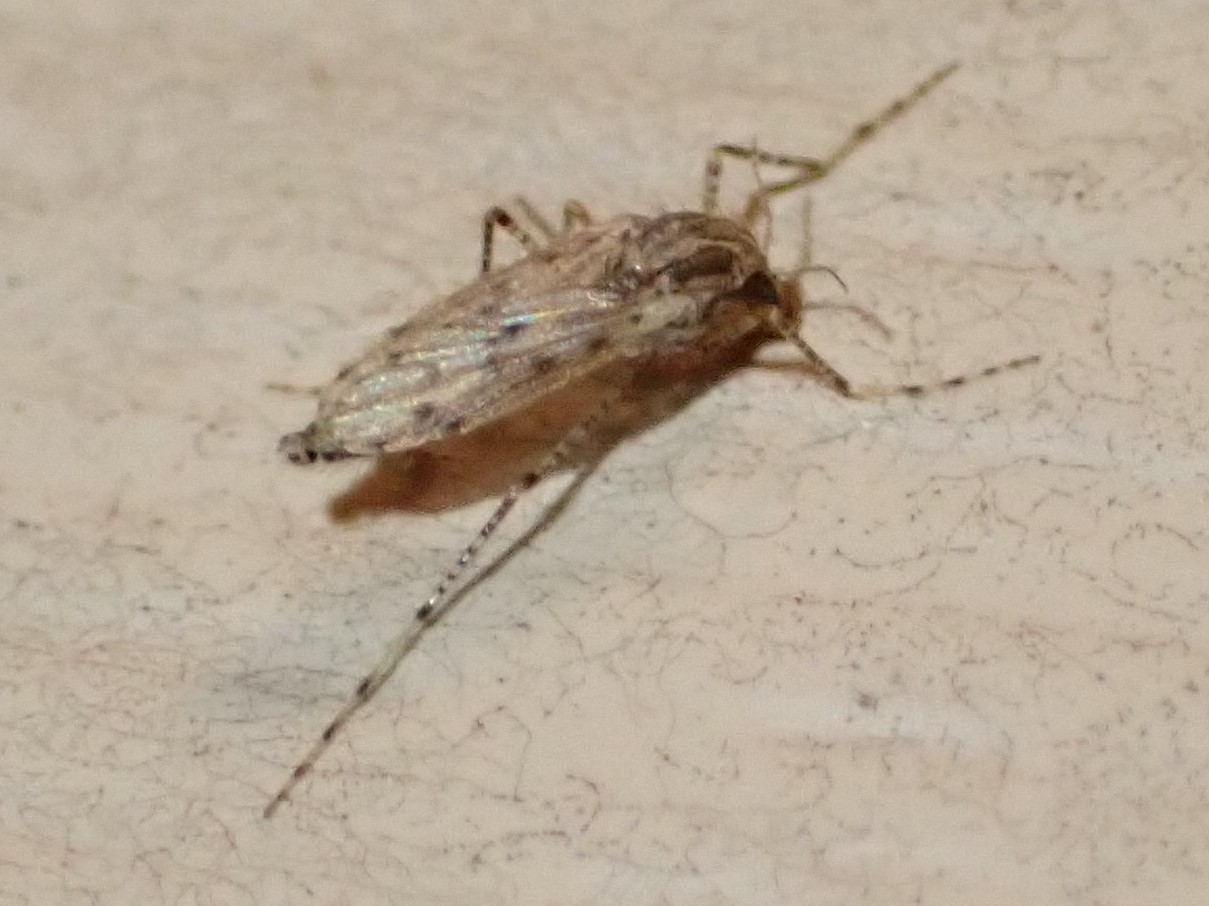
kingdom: Animalia
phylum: Arthropoda
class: Insecta
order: Diptera
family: Chaoboridae
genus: Chaoborus
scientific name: Chaoborus punctipennis
